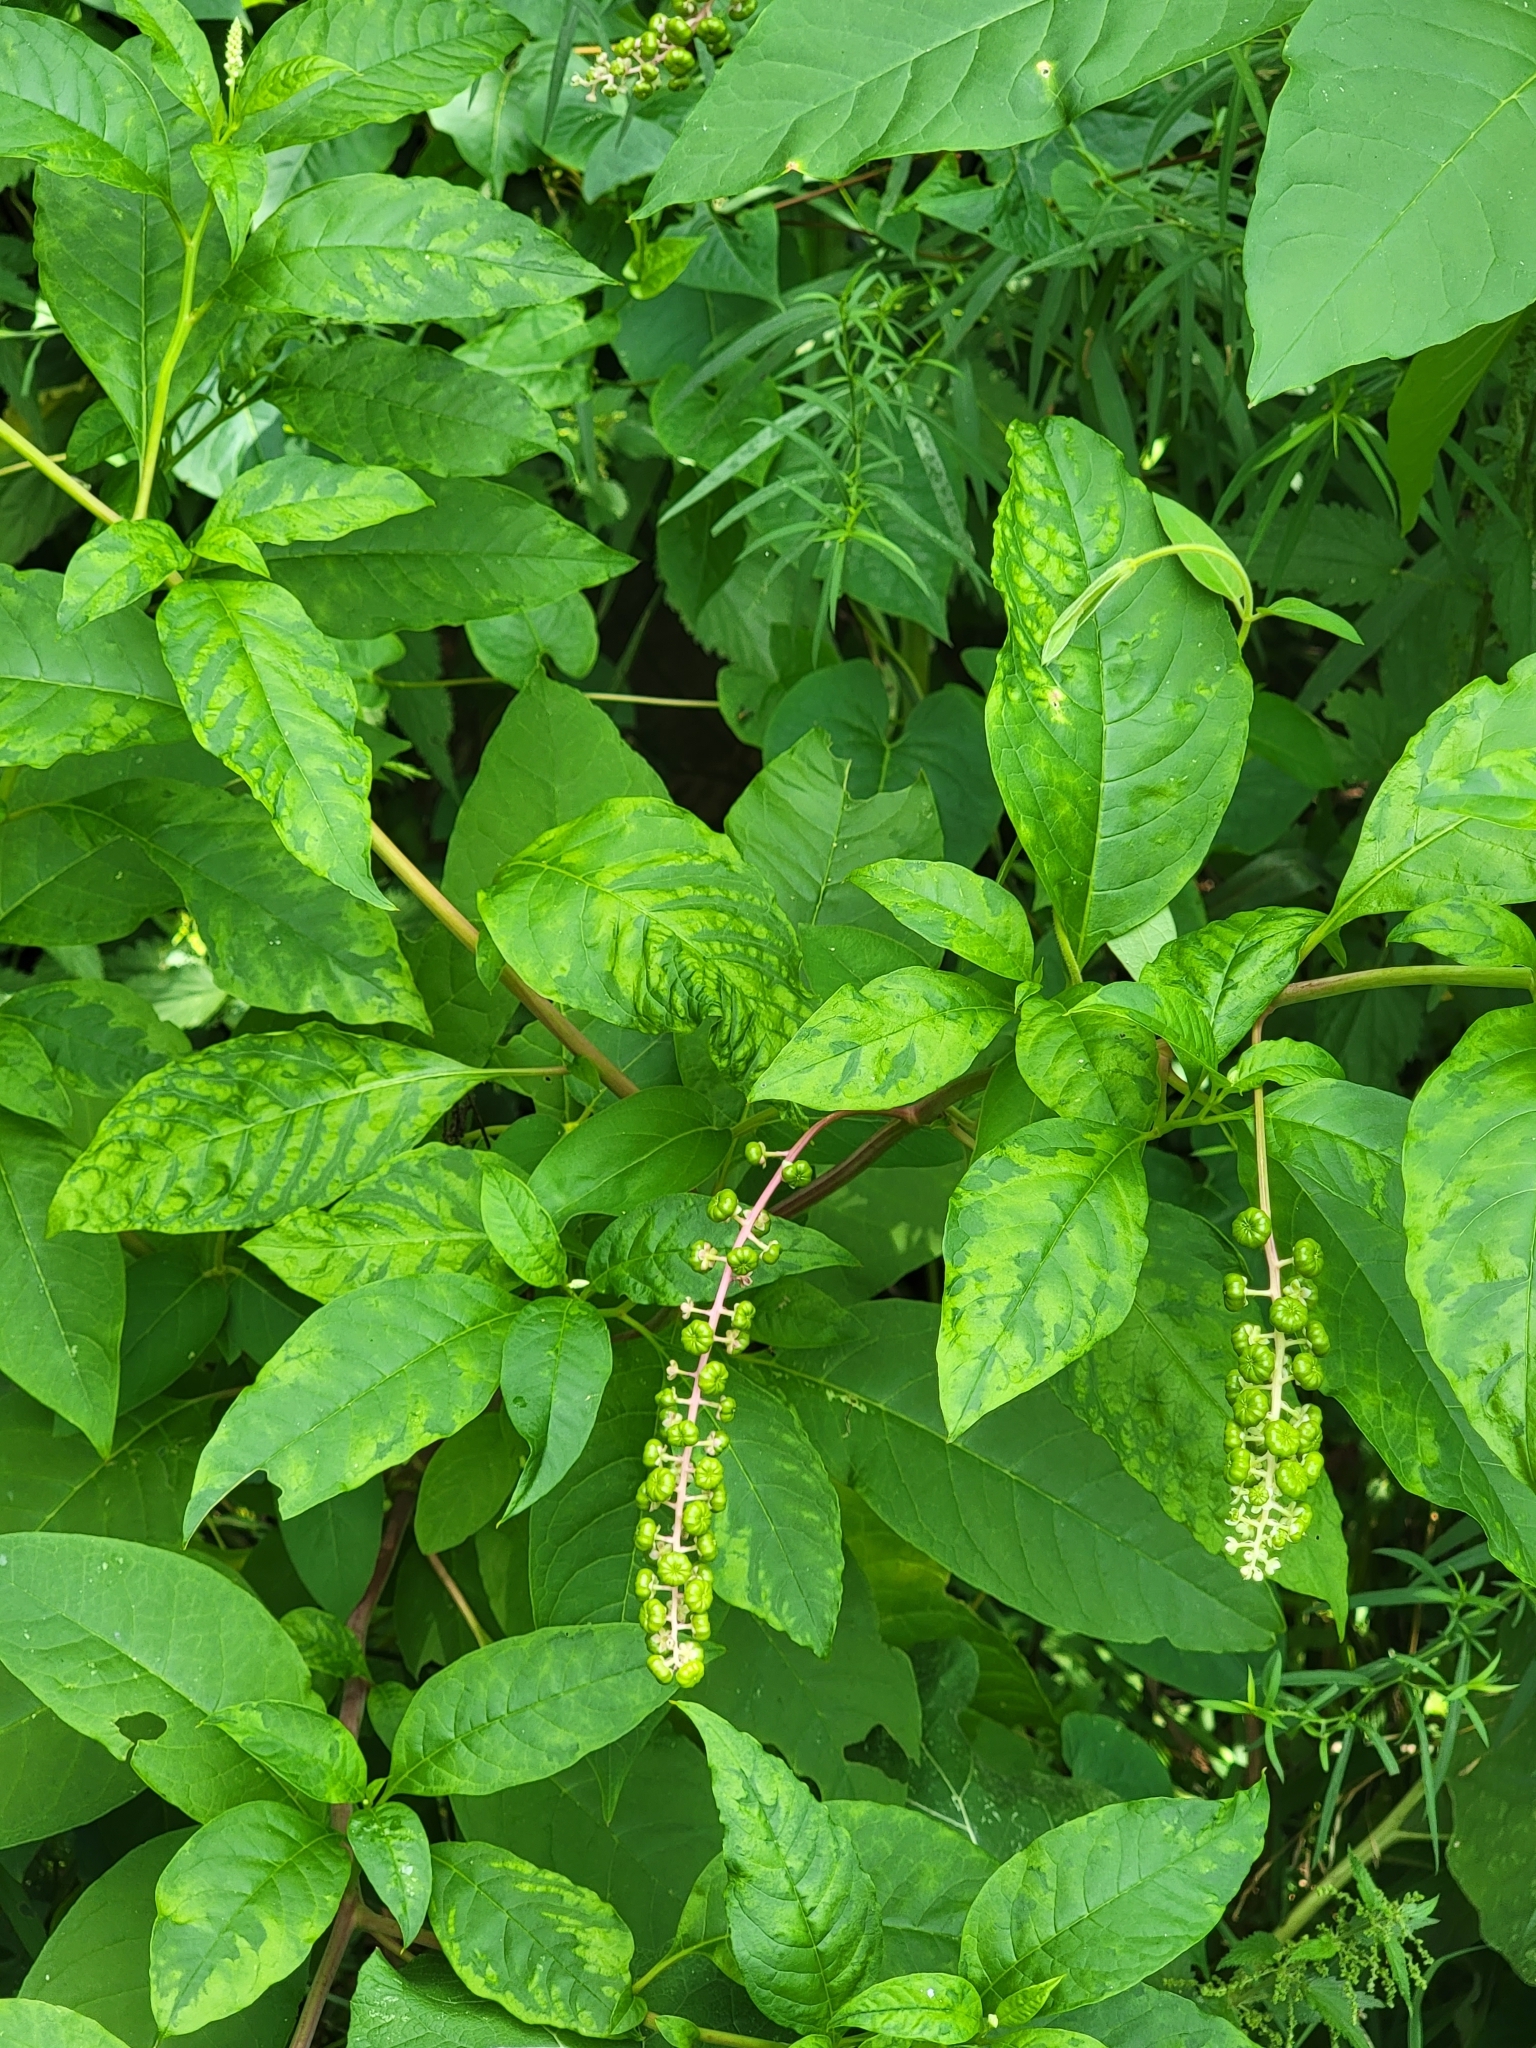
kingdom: Viruses
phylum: Pisuviricota
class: Stelpaviricetes
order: Patatavirales
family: Potyviridae
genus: Potyvirus
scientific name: Potyvirus Pokeweed mosaic virus
